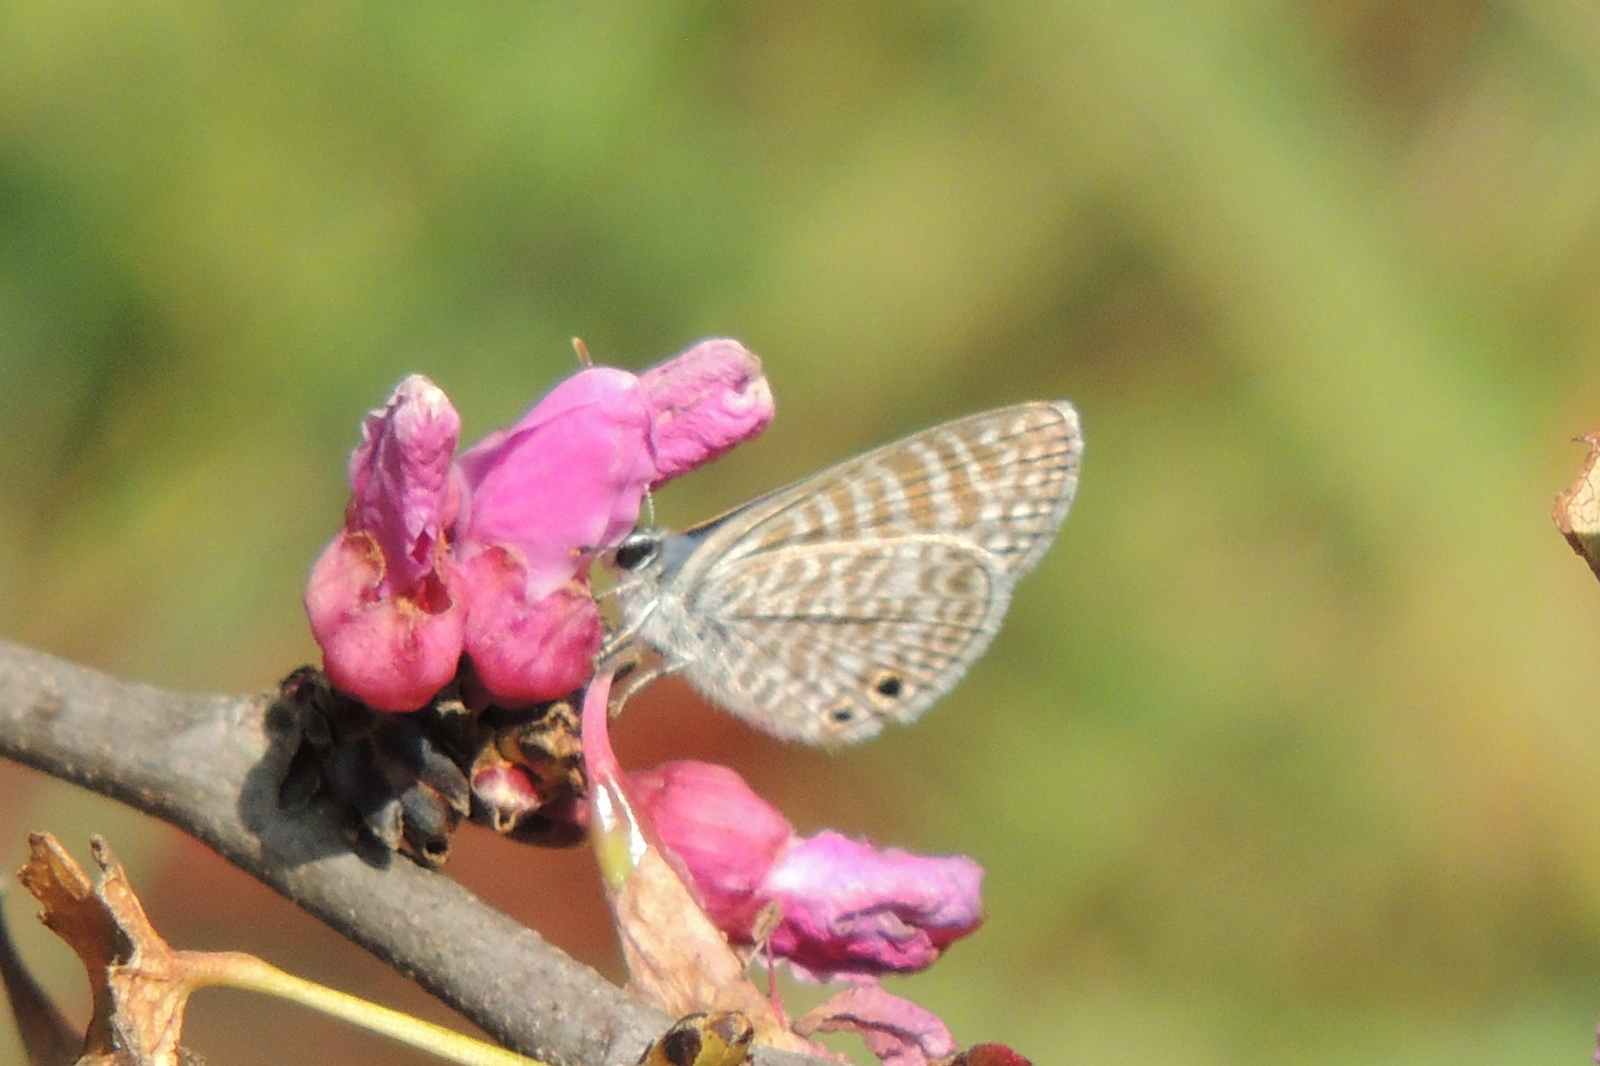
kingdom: Animalia
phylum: Arthropoda
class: Insecta
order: Lepidoptera
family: Lycaenidae
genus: Leptotes
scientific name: Leptotes marina
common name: Marine blue
